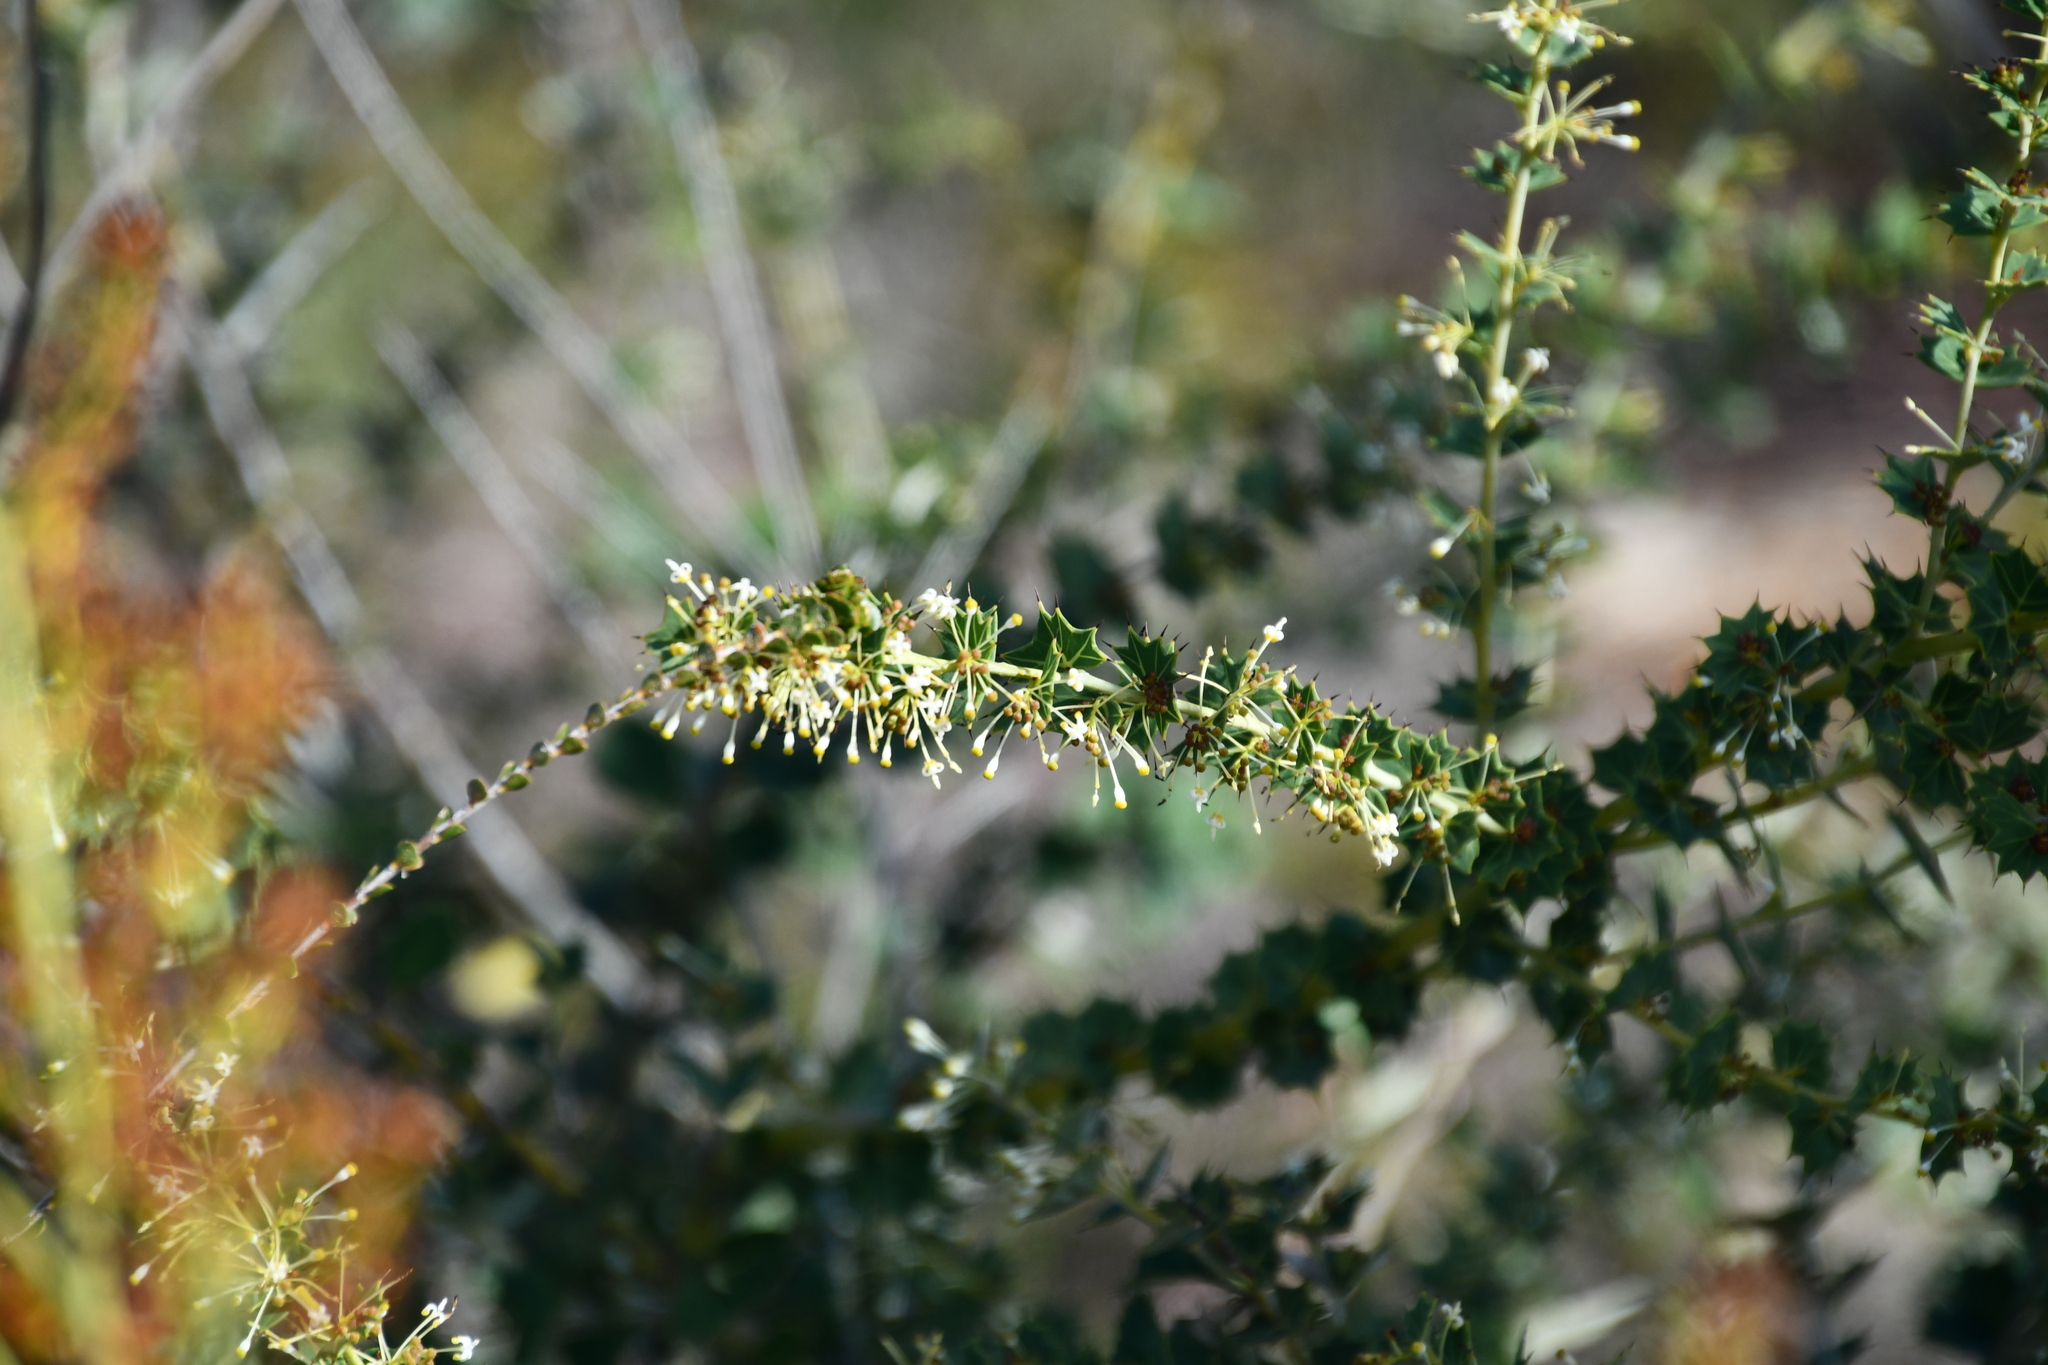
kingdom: Plantae
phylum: Tracheophyta
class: Magnoliopsida
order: Proteales
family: Proteaceae
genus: Grevillea
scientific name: Grevillea uniformis
